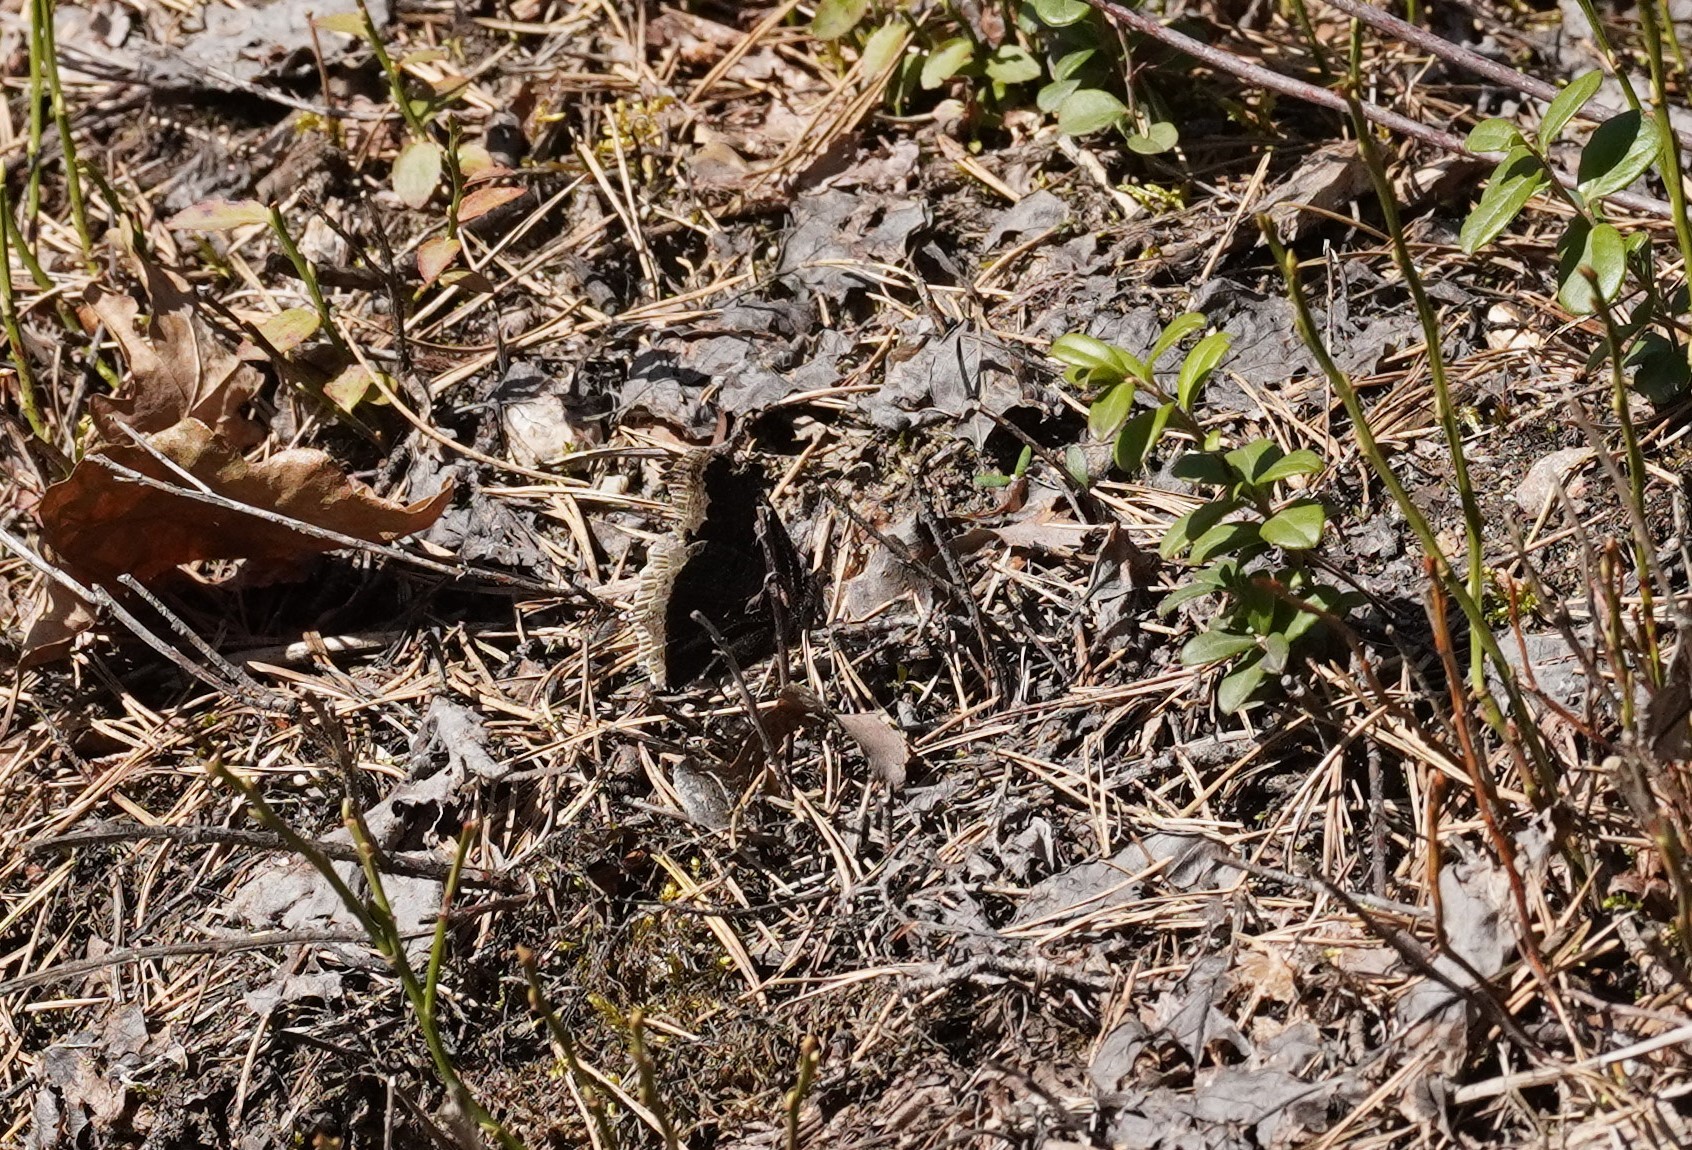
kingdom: Animalia
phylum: Arthropoda
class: Insecta
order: Lepidoptera
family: Nymphalidae
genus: Nymphalis
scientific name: Nymphalis antiopa
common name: Camberwell beauty
